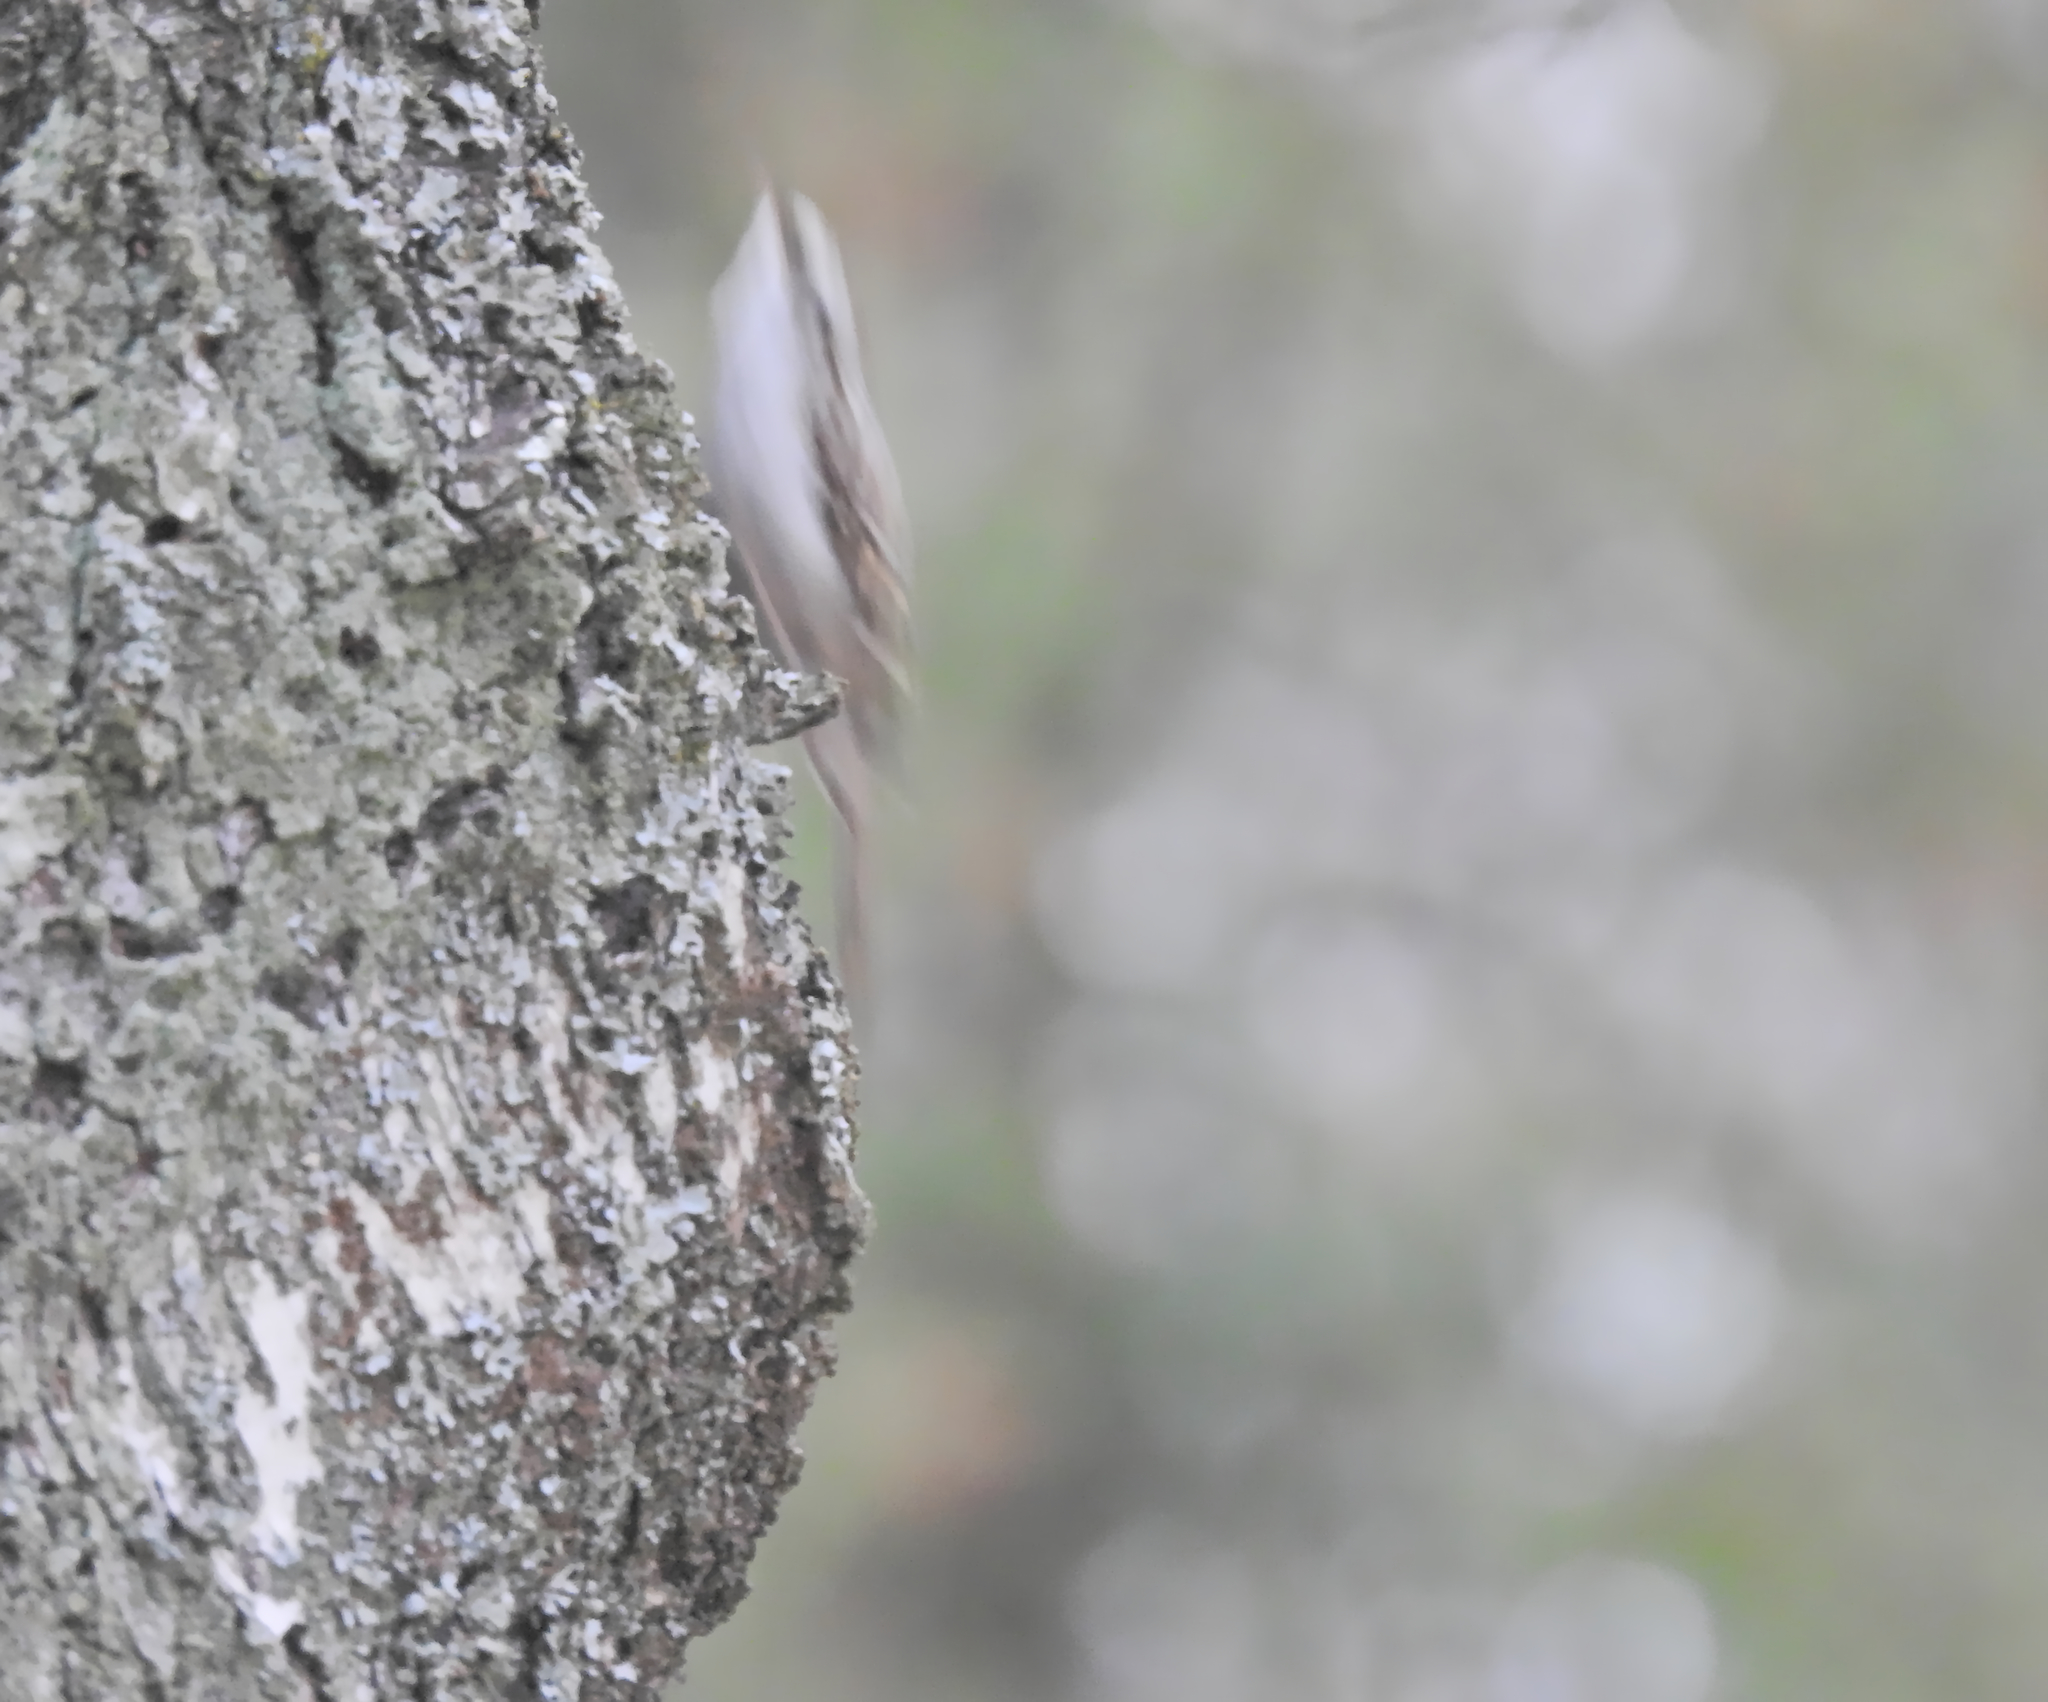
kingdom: Animalia
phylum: Chordata
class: Aves
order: Passeriformes
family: Certhiidae
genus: Certhia
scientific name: Certhia familiaris
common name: Eurasian treecreeper
